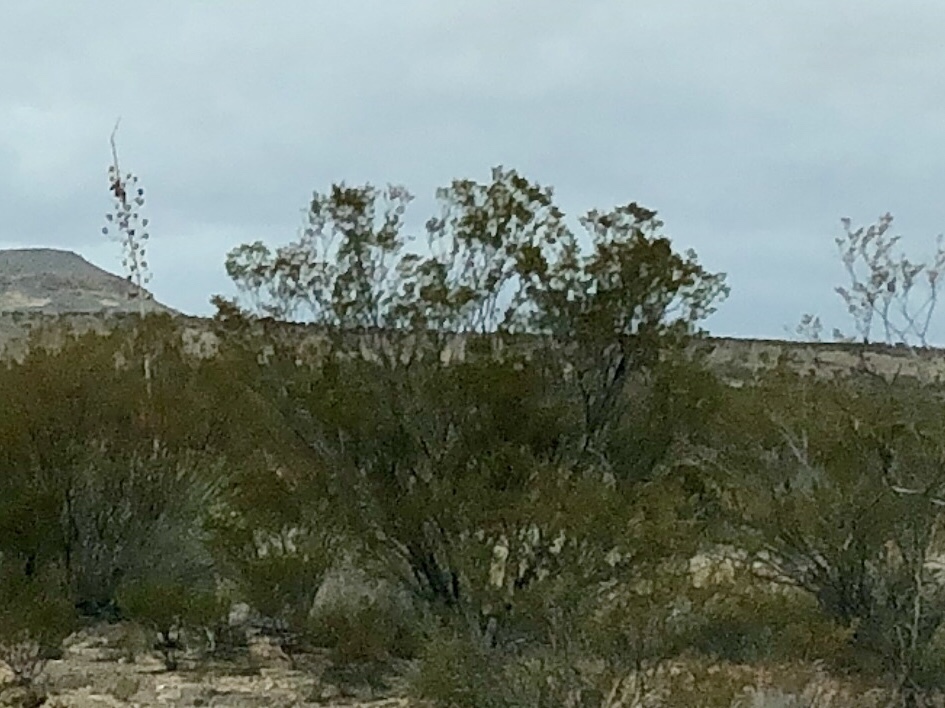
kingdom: Plantae
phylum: Tracheophyta
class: Magnoliopsida
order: Zygophyllales
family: Zygophyllaceae
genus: Larrea
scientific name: Larrea tridentata
